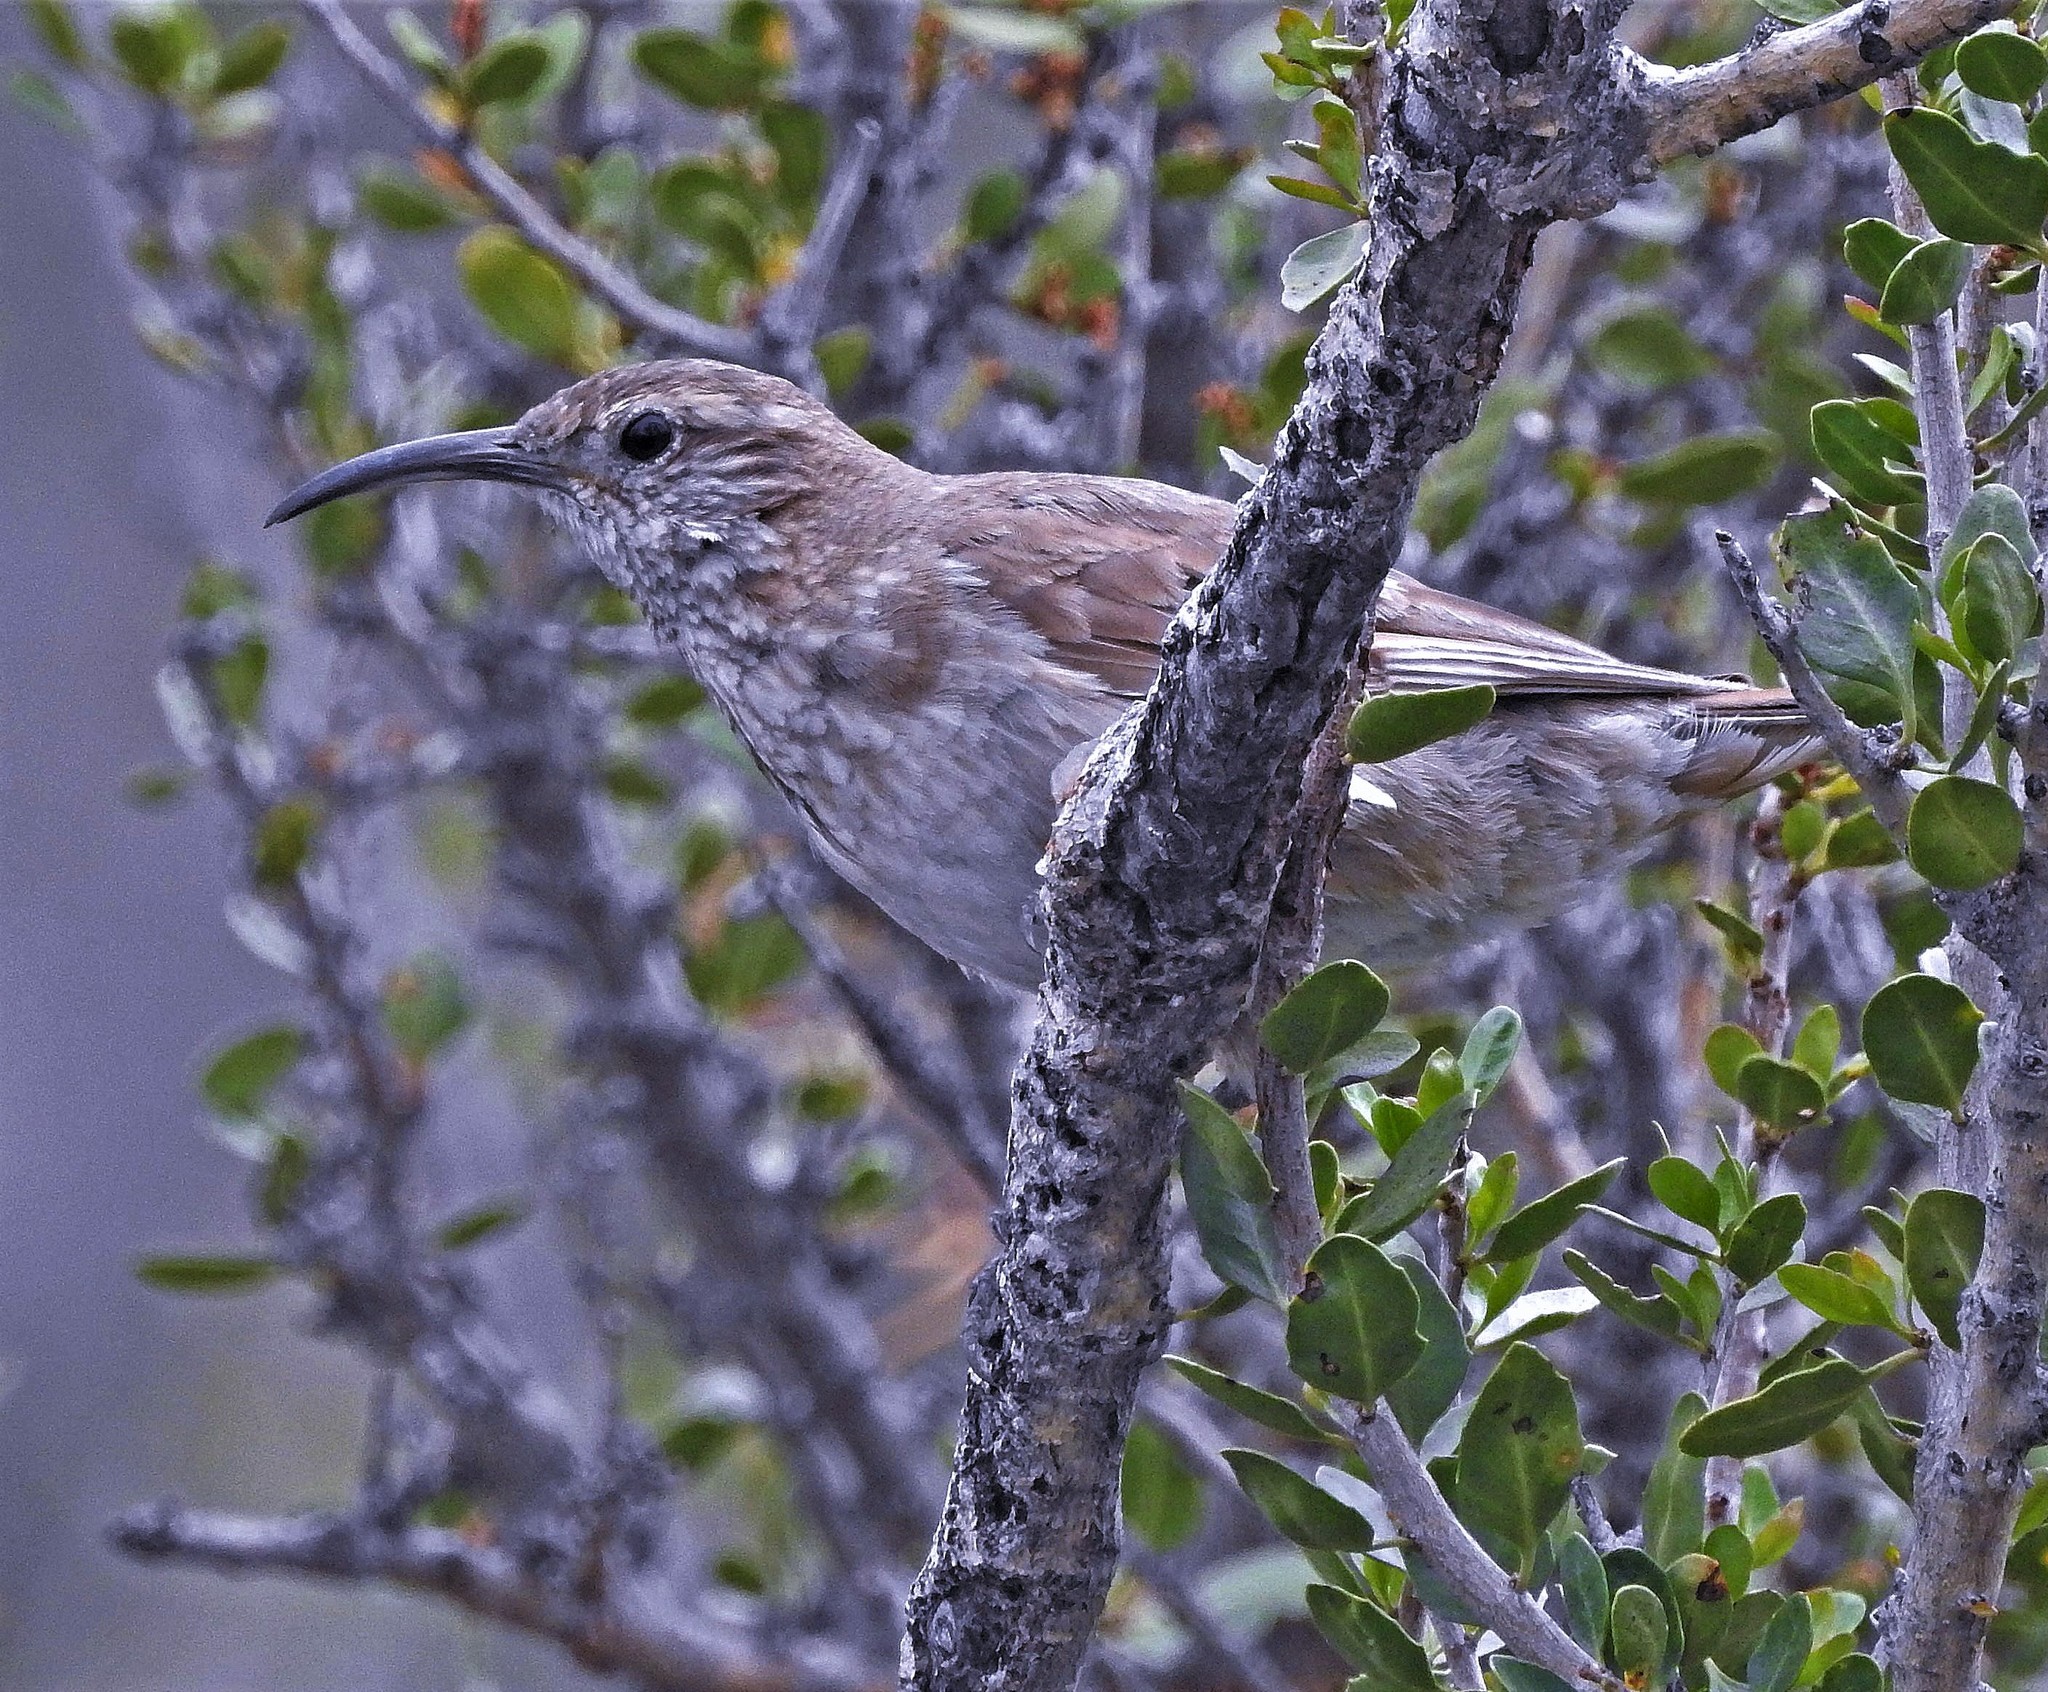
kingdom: Animalia
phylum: Chordata
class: Aves
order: Passeriformes
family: Furnariidae
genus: Upucerthia
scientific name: Upucerthia dumetaria
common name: Scale-throated earthcreeper
